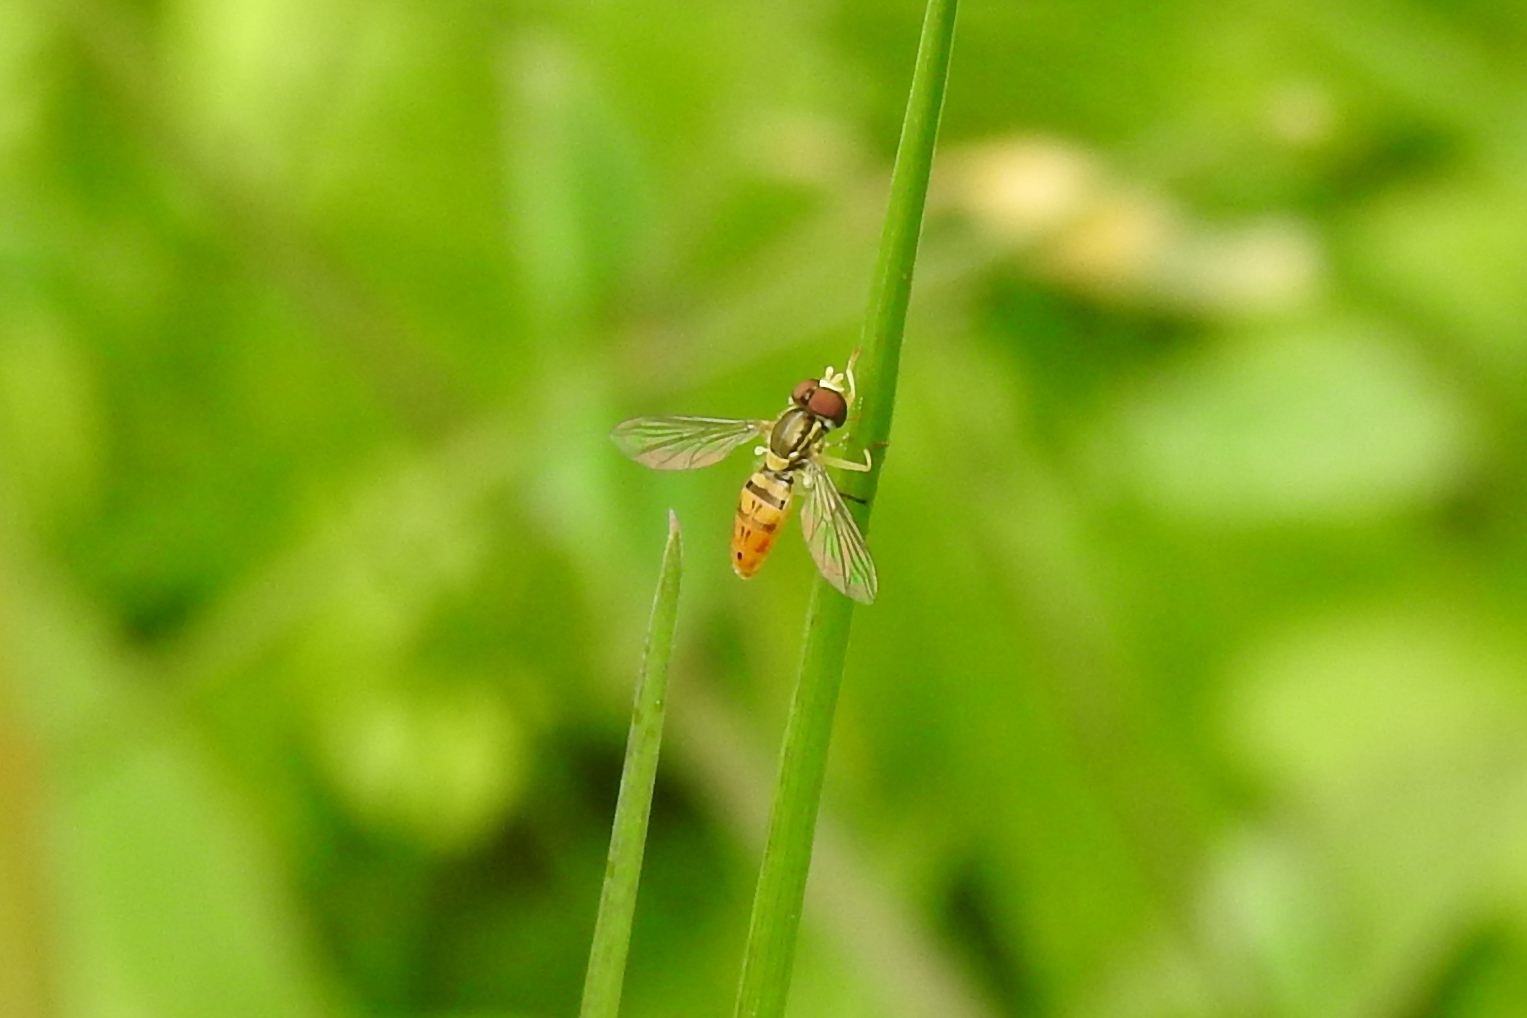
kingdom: Animalia
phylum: Arthropoda
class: Insecta
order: Diptera
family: Syrphidae
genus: Toxomerus
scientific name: Toxomerus marginatus
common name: Syrphid fly
